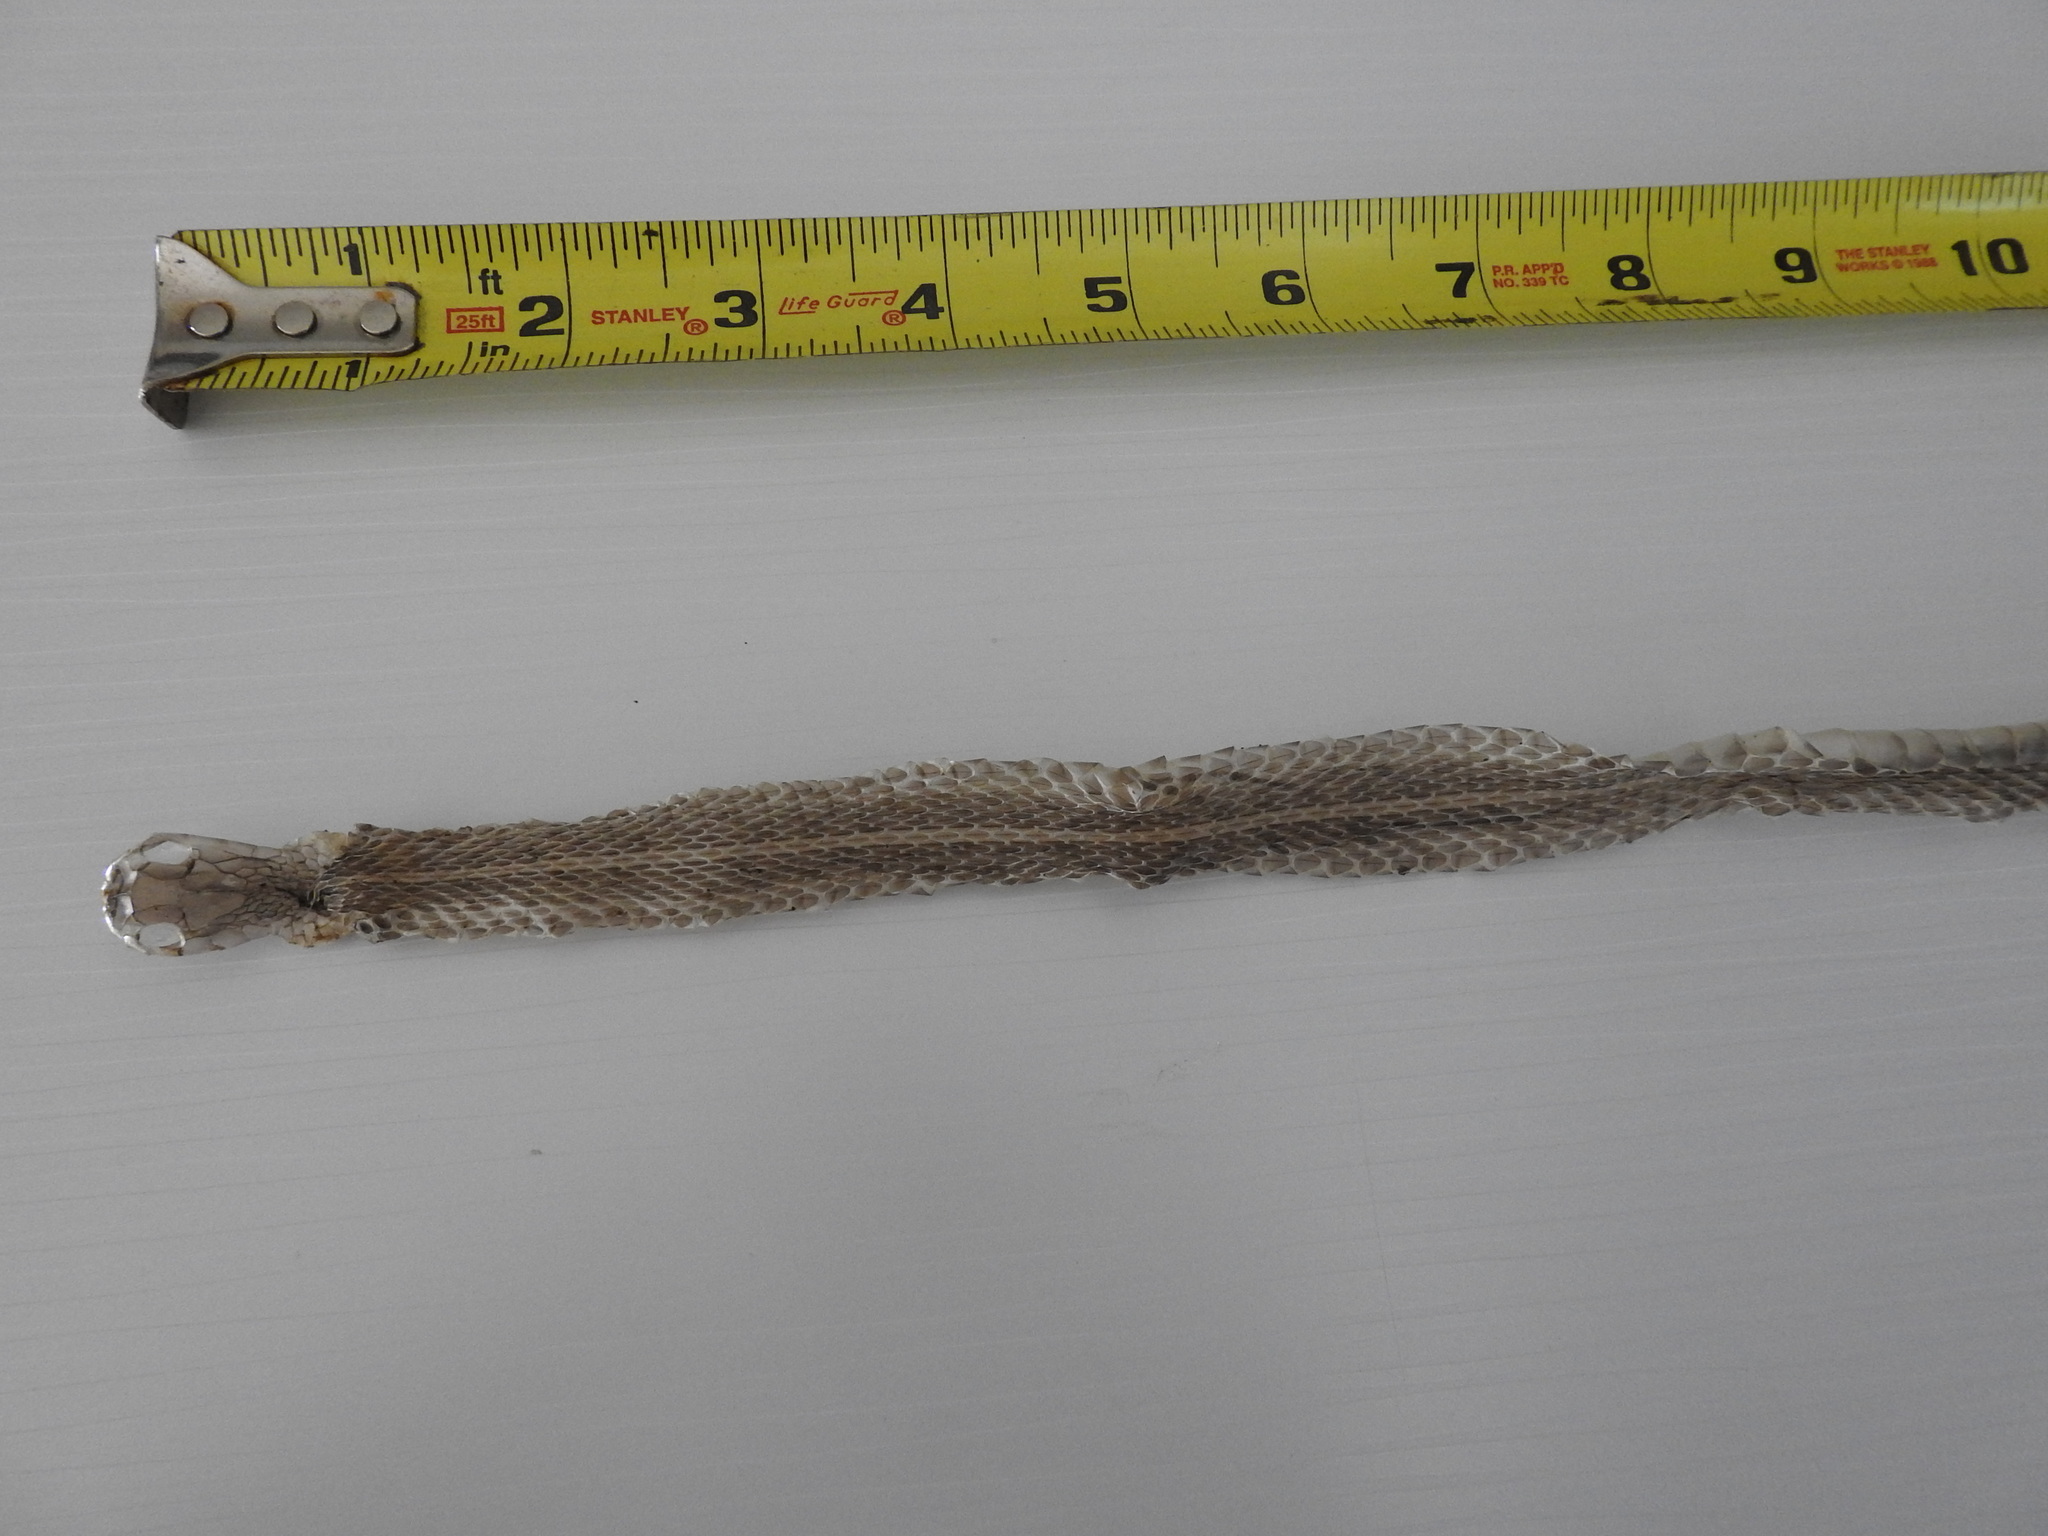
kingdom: Animalia
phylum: Chordata
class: Squamata
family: Colubridae
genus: Thamnophis
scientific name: Thamnophis sirtalis
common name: Common garter snake
